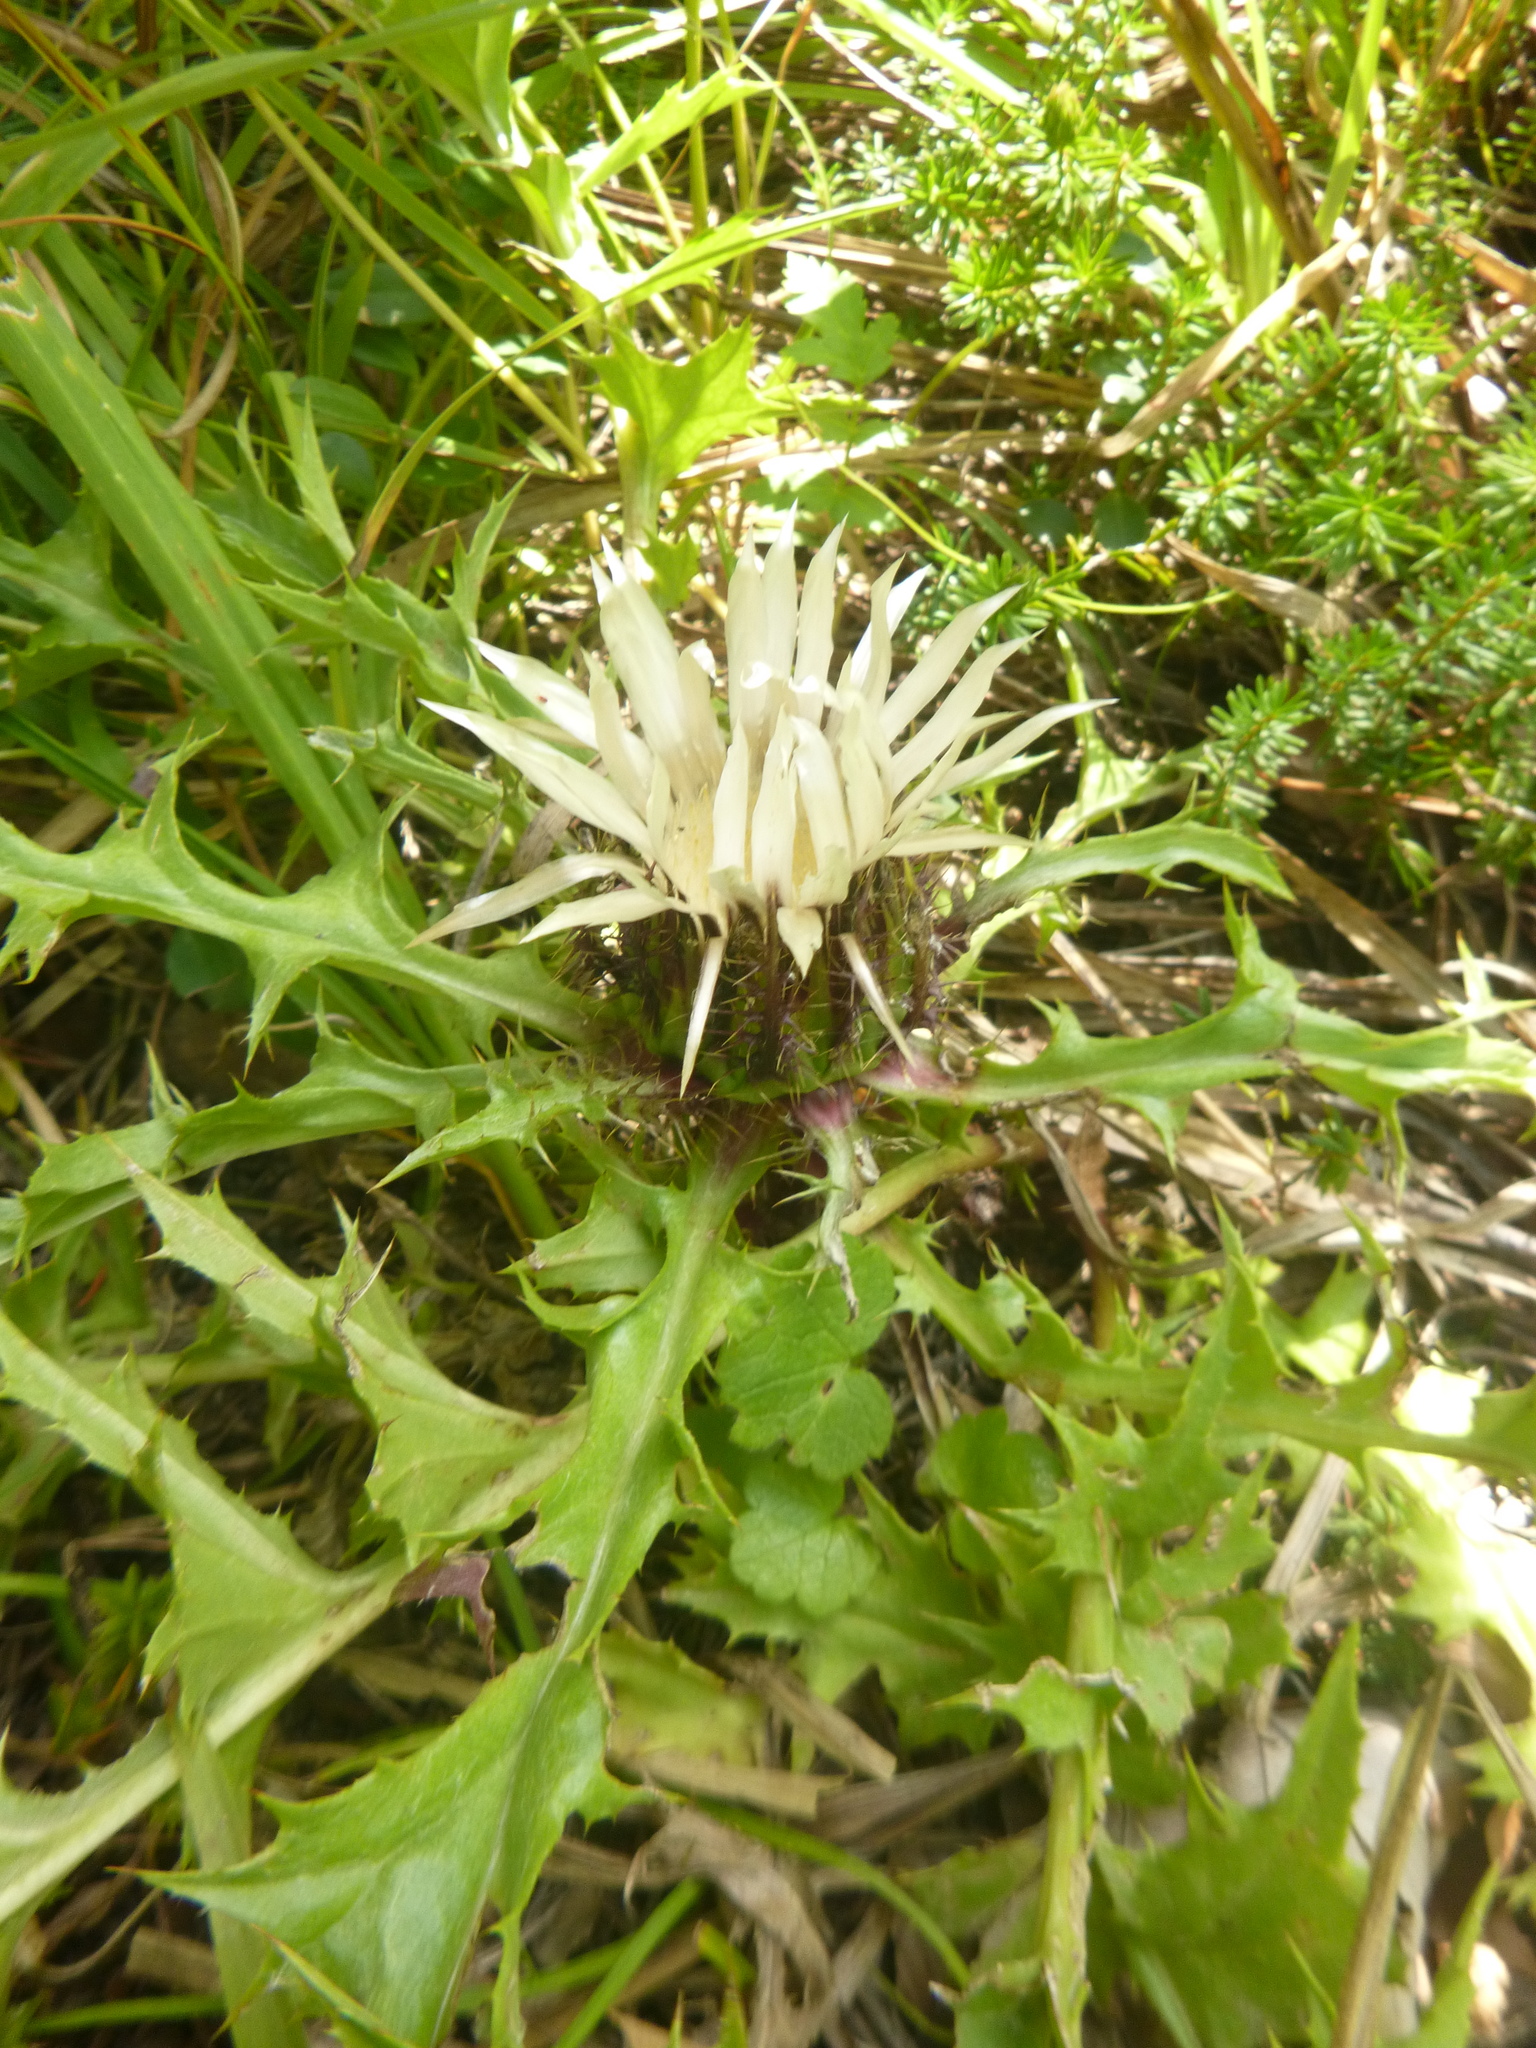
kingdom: Plantae
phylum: Tracheophyta
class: Magnoliopsida
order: Asterales
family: Asteraceae
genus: Carlina
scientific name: Carlina acaulis
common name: Stemless carline thistle
